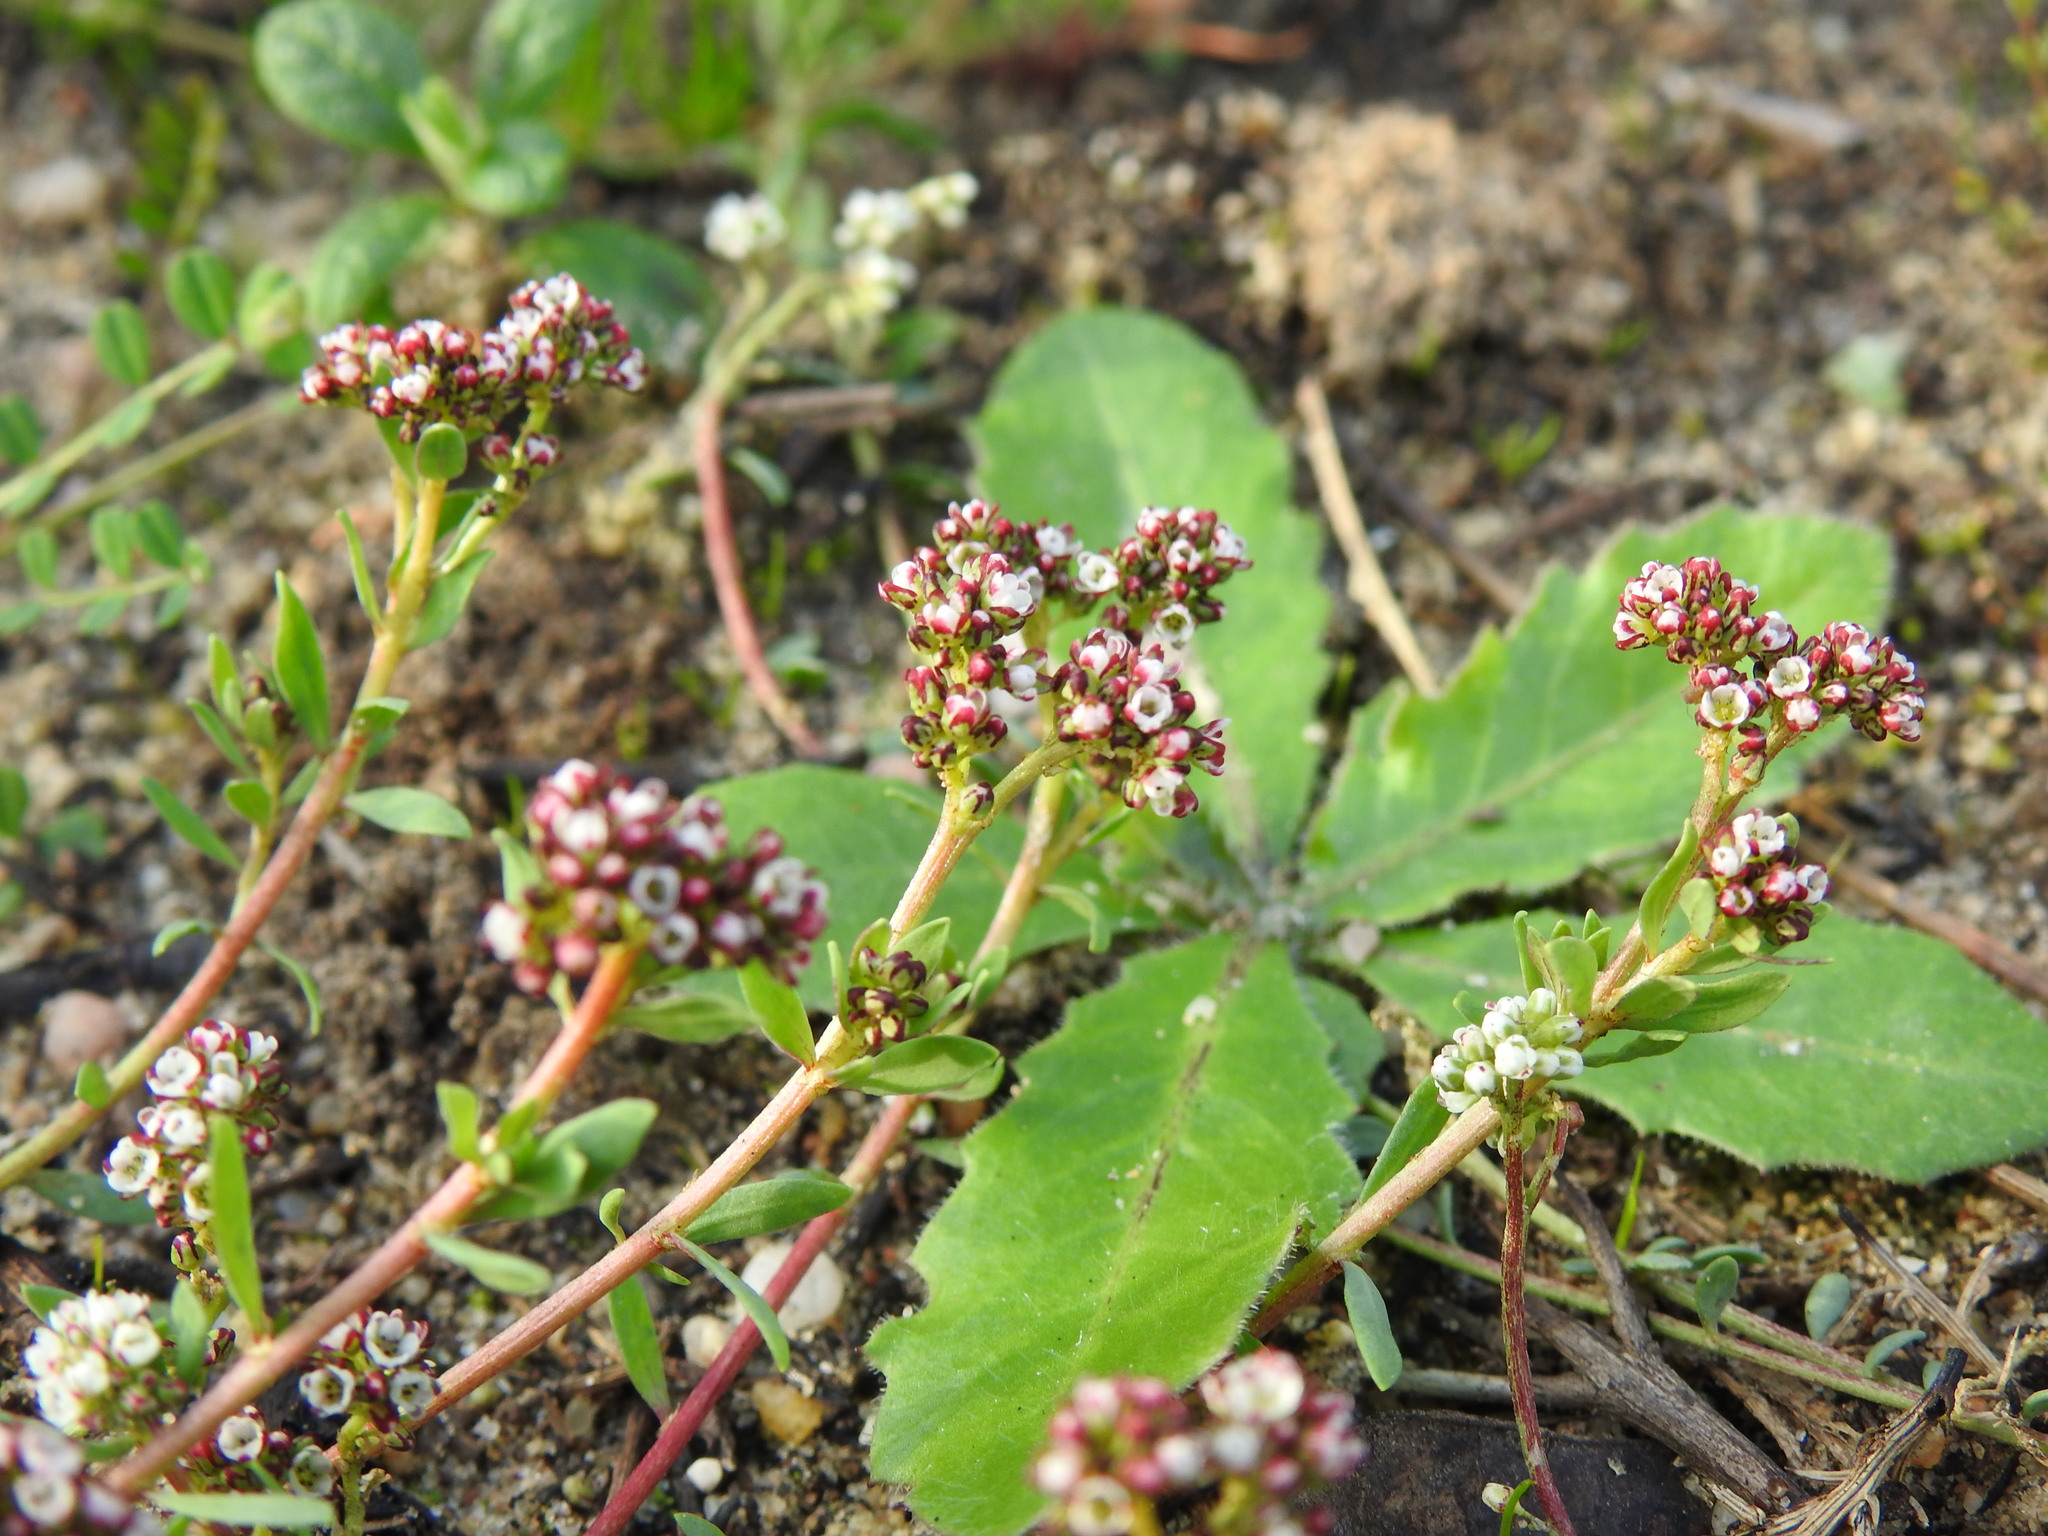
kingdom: Plantae
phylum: Tracheophyta
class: Magnoliopsida
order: Caryophyllales
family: Caryophyllaceae
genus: Corrigiola
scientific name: Corrigiola litoralis
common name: Strapwort
